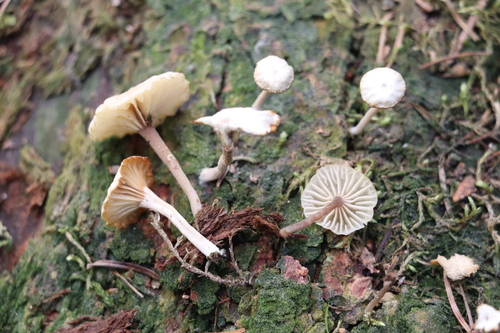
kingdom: Fungi
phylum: Basidiomycota
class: Agaricomycetes
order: Agaricales
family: Hygrophoraceae
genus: Lichenomphalia
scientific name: Lichenomphalia umbellifera
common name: Heath navel
